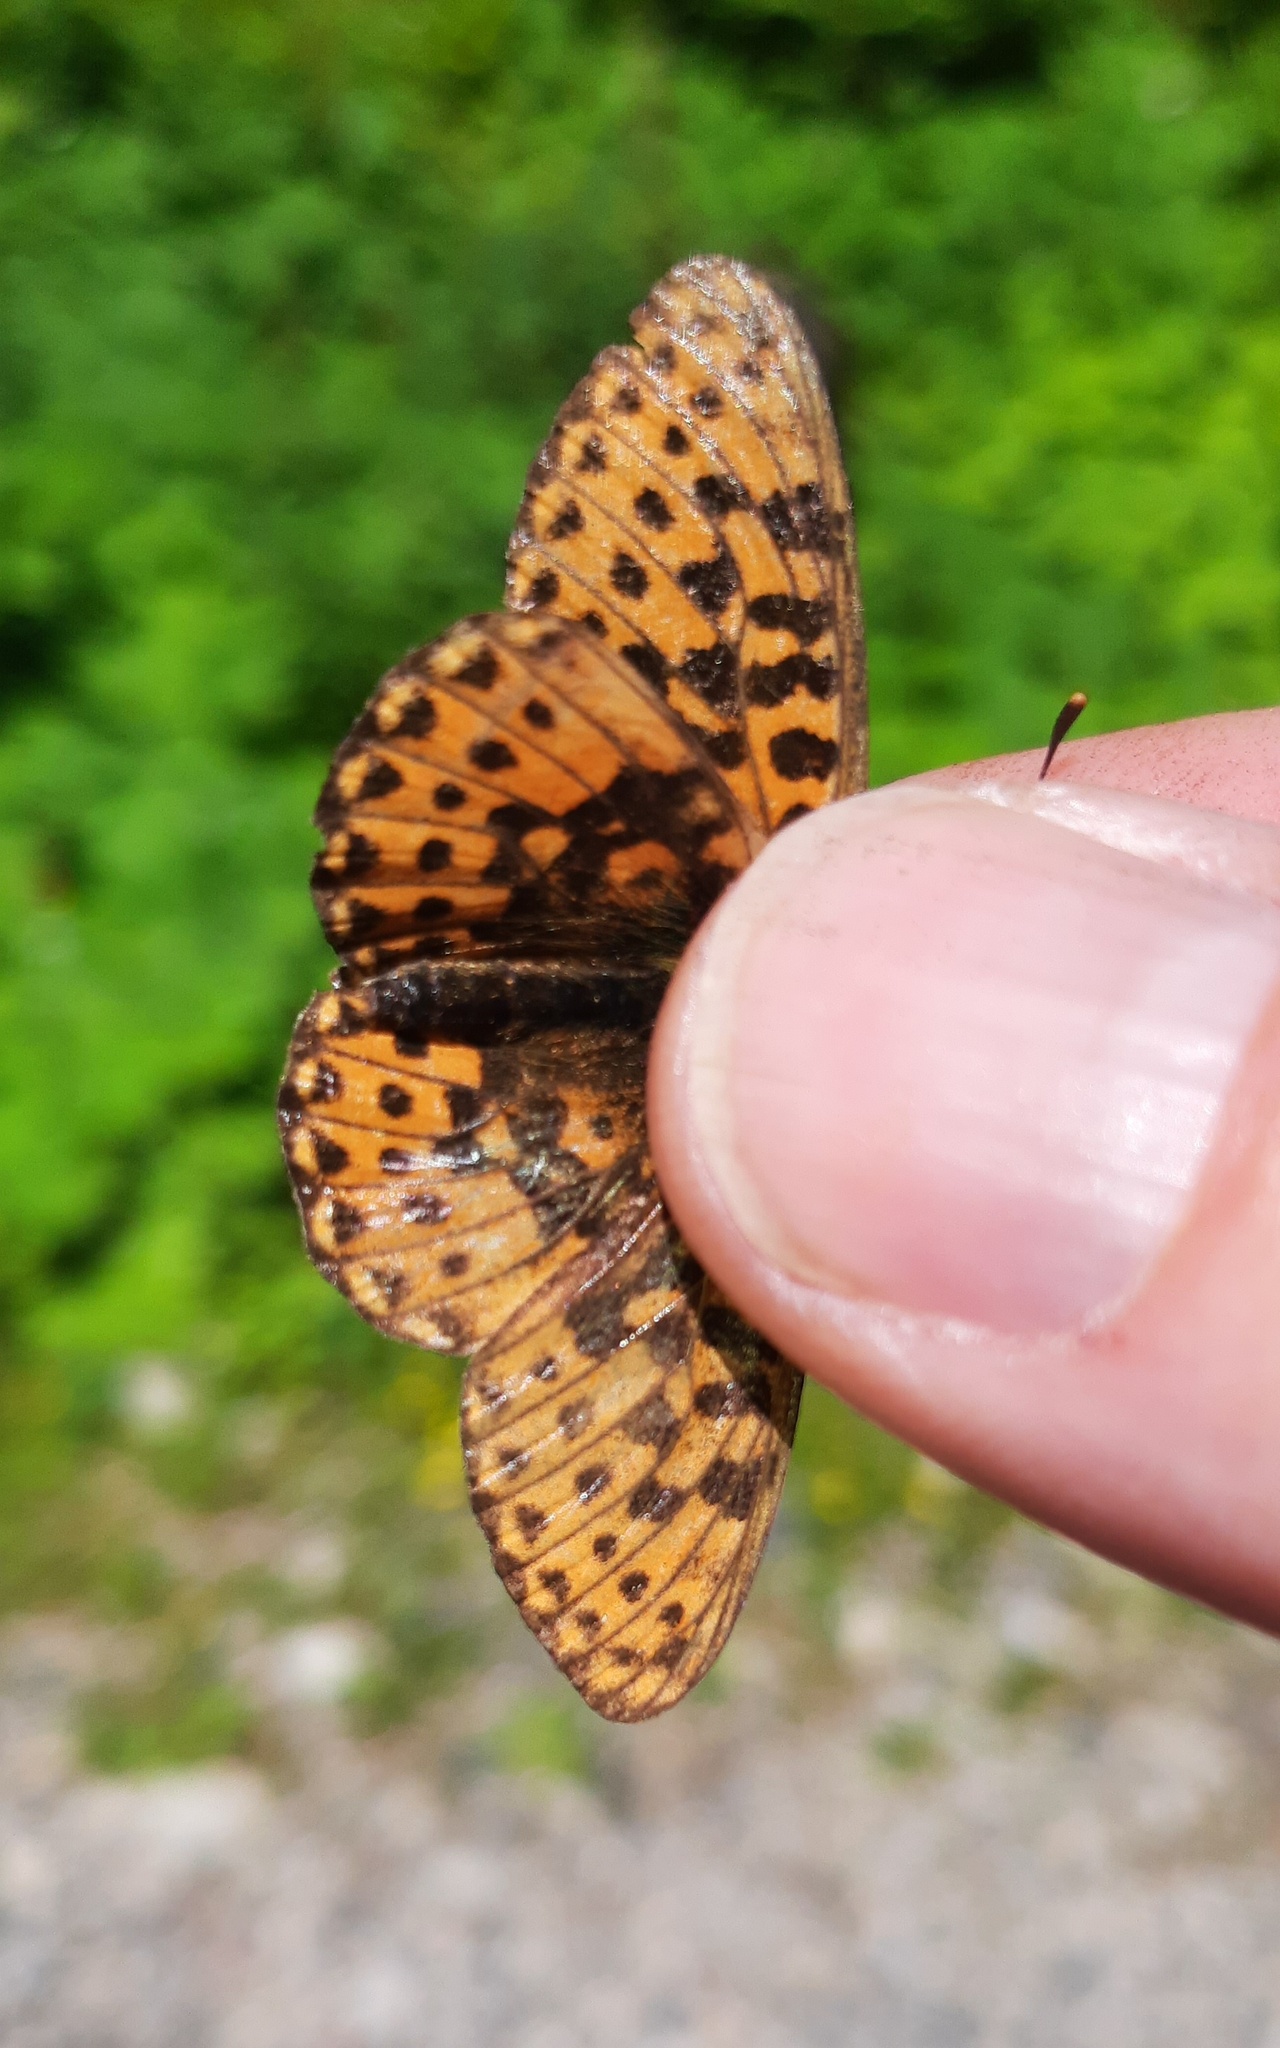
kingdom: Animalia
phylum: Arthropoda
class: Insecta
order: Lepidoptera
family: Nymphalidae
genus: Clossiana
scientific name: Clossiana euphrosyne
